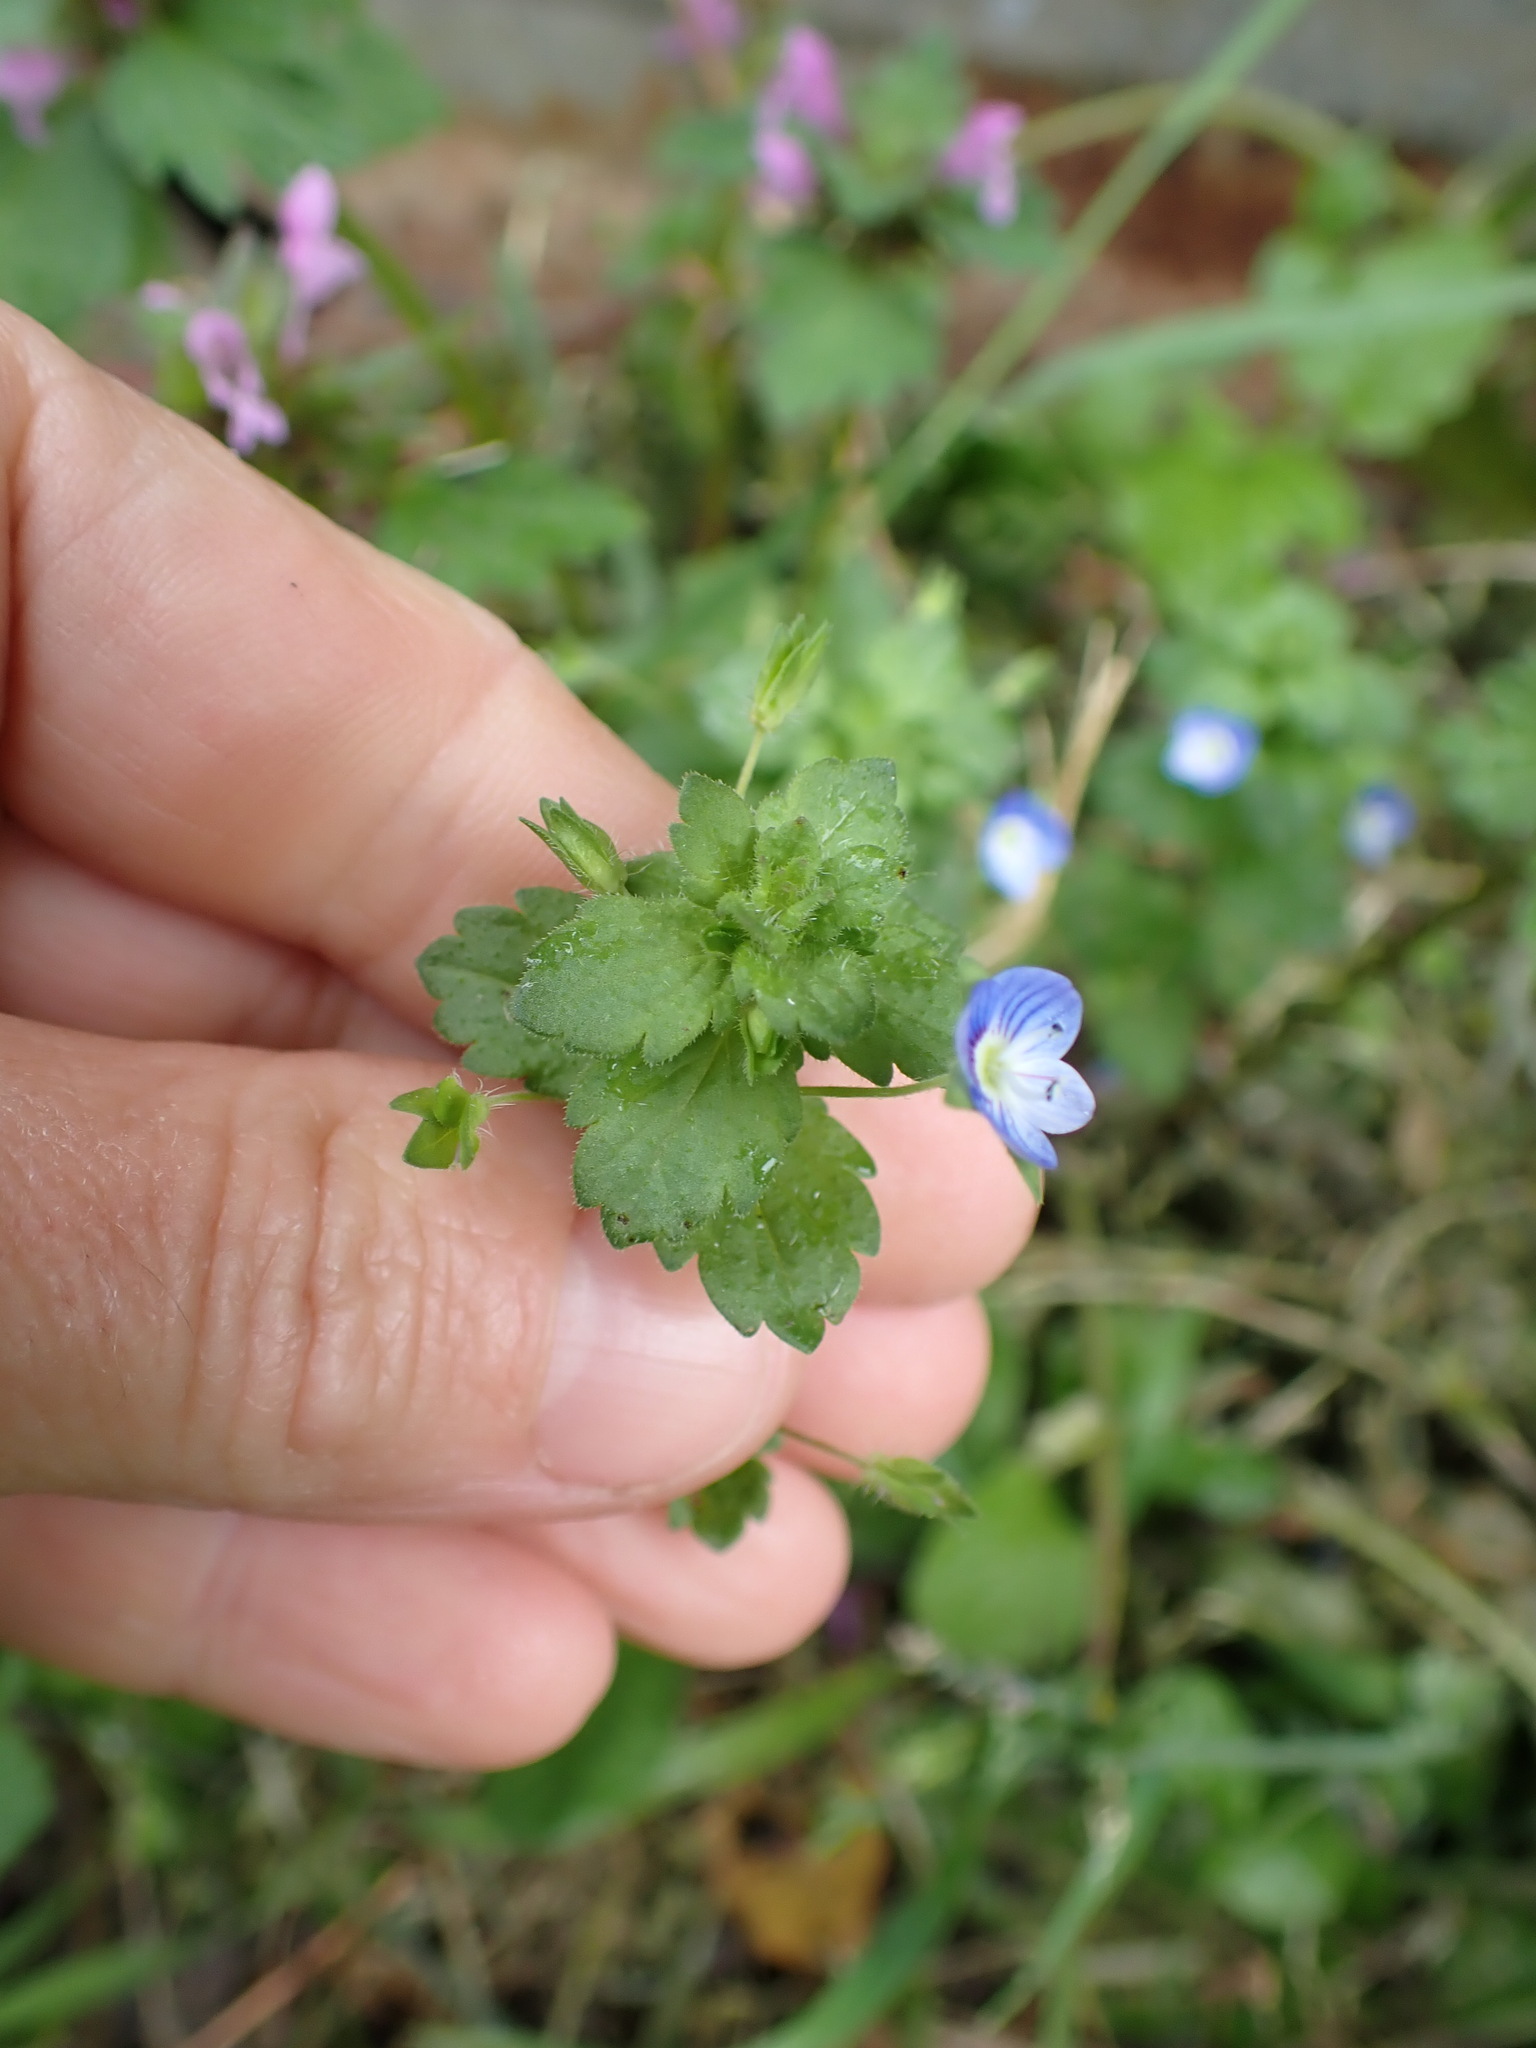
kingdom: Plantae
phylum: Tracheophyta
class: Magnoliopsida
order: Lamiales
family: Plantaginaceae
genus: Veronica
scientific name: Veronica persica
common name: Common field-speedwell
